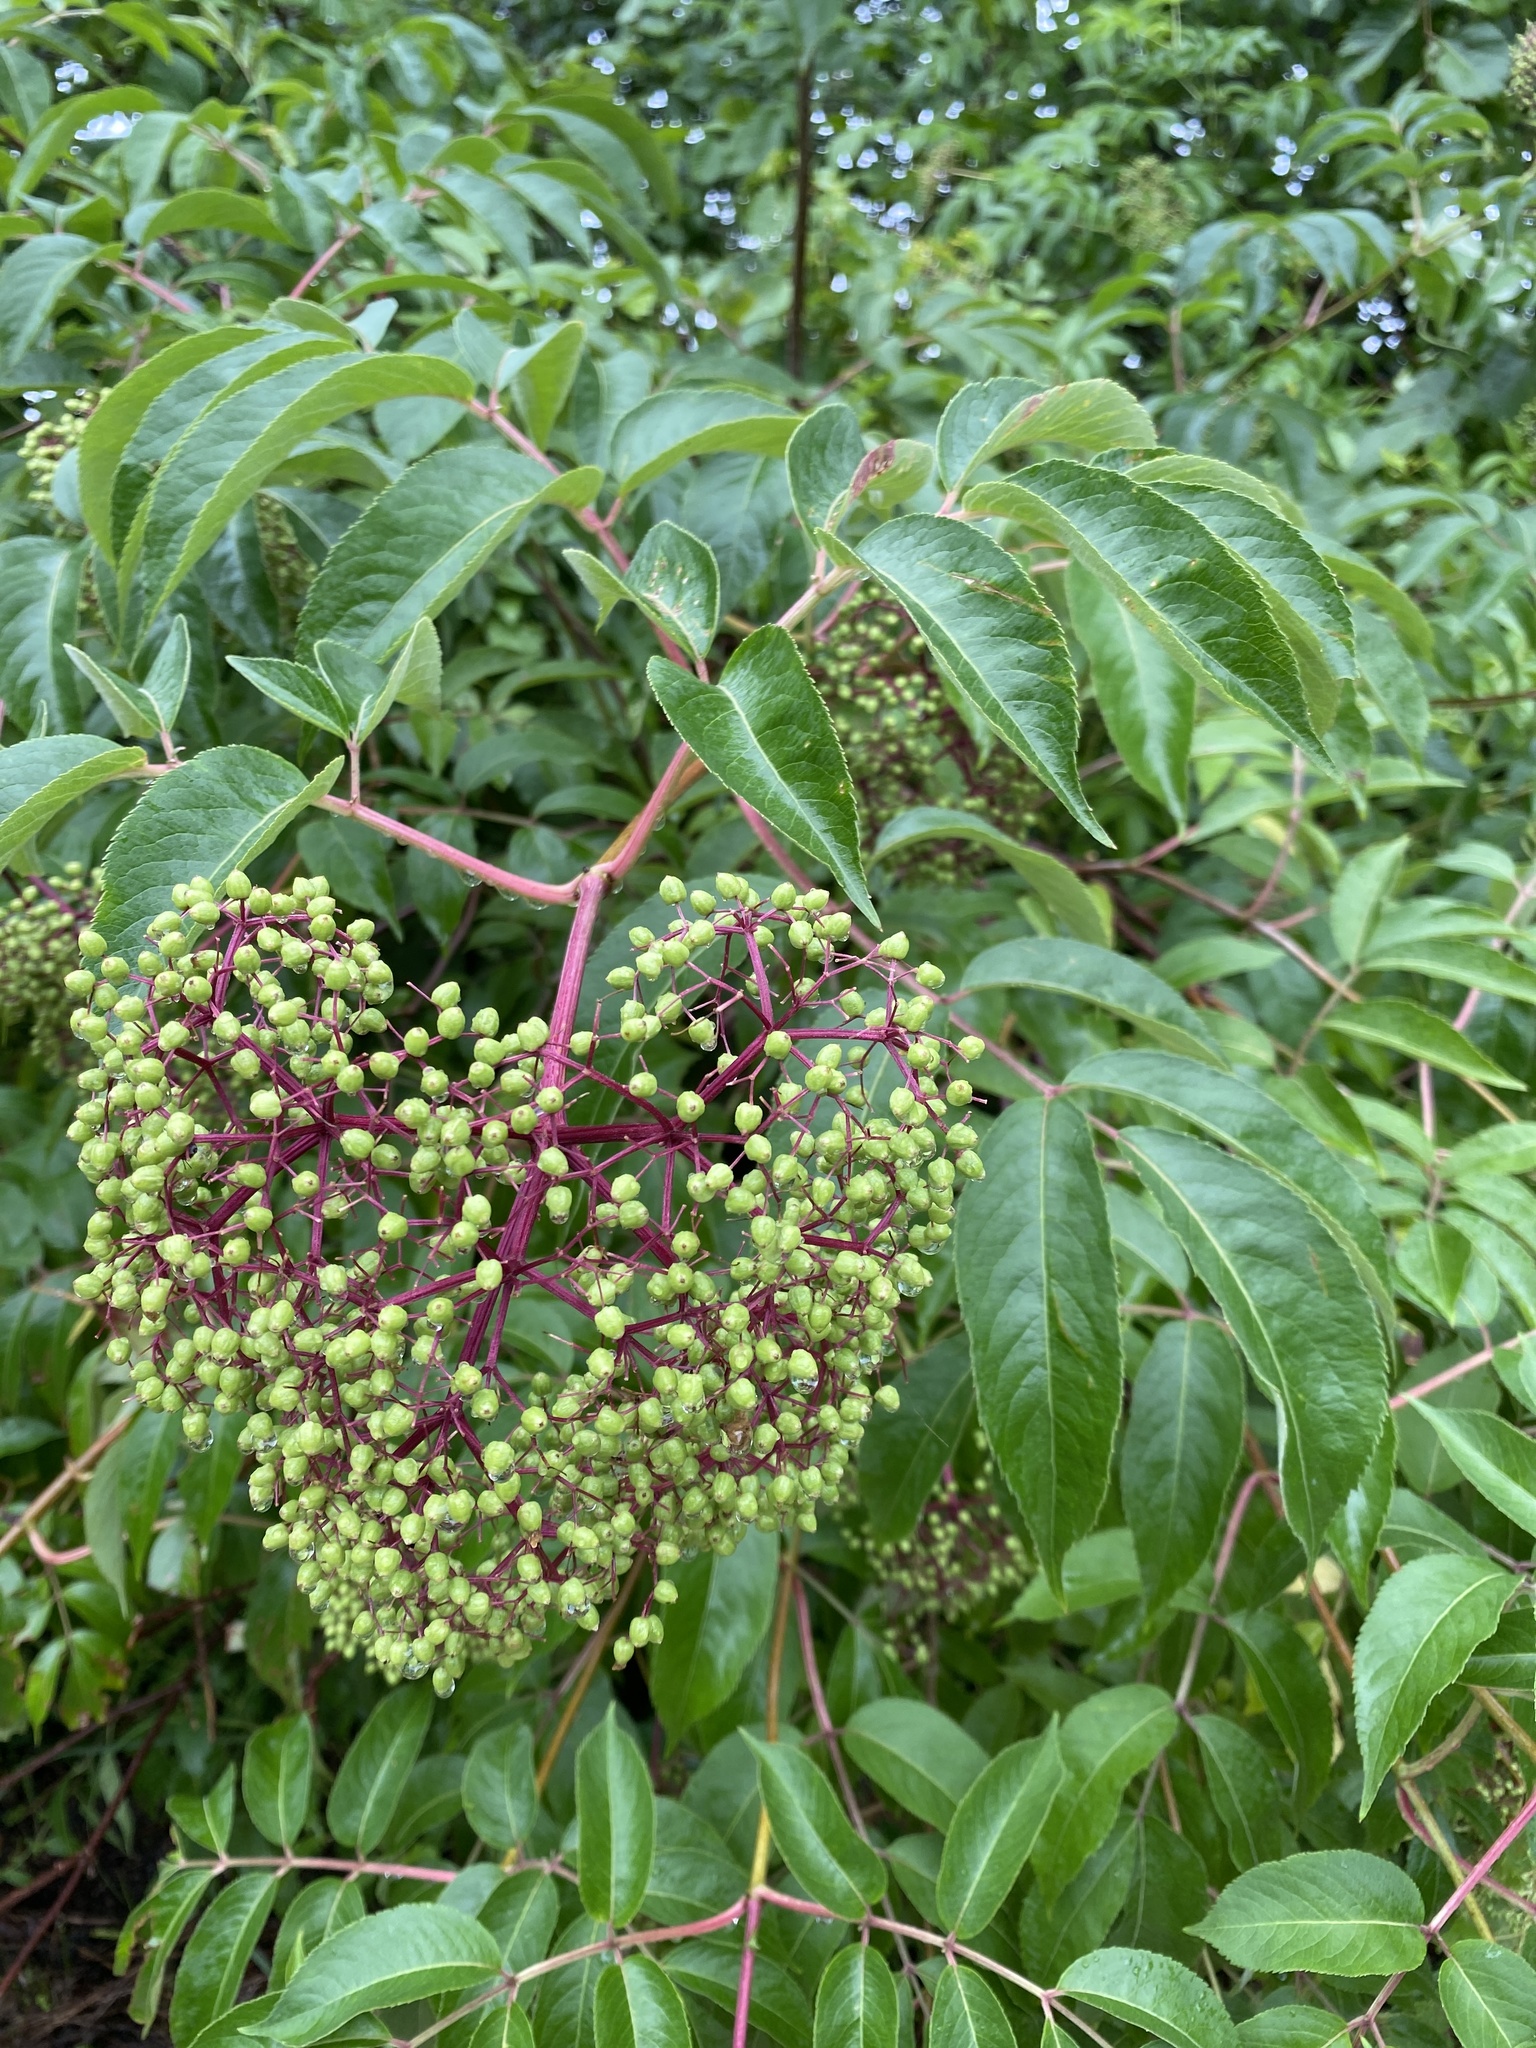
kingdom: Plantae
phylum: Tracheophyta
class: Magnoliopsida
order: Dipsacales
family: Viburnaceae
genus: Sambucus
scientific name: Sambucus canadensis
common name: American elder
